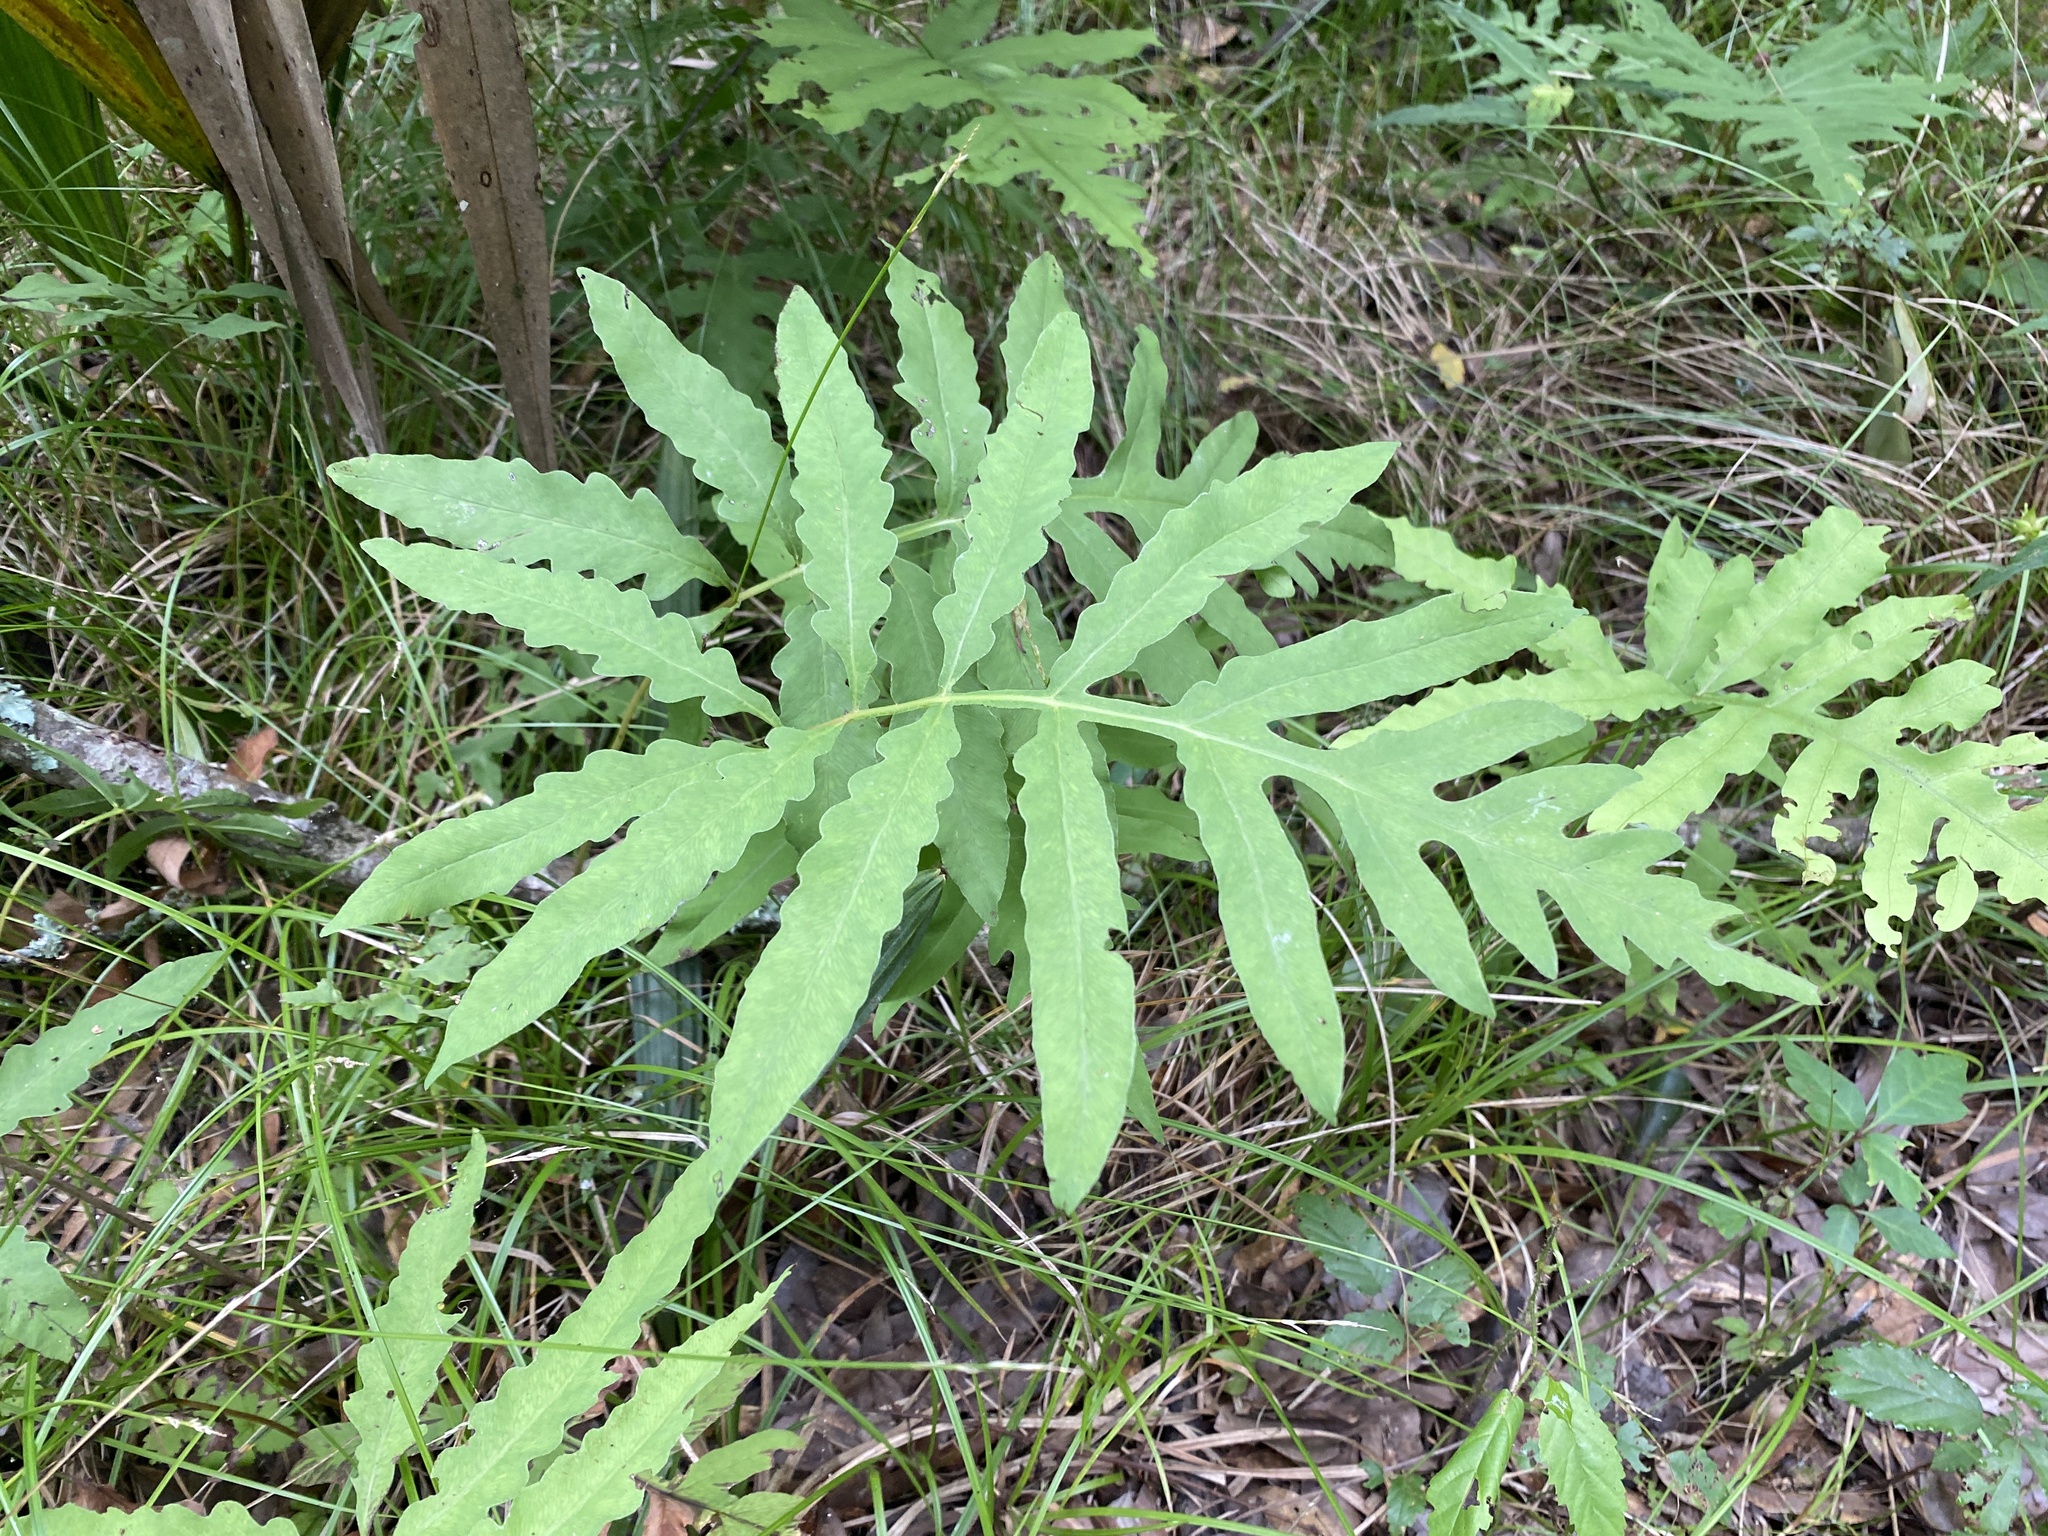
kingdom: Plantae
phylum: Tracheophyta
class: Polypodiopsida
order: Polypodiales
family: Onocleaceae
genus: Onoclea
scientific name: Onoclea sensibilis
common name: Sensitive fern
